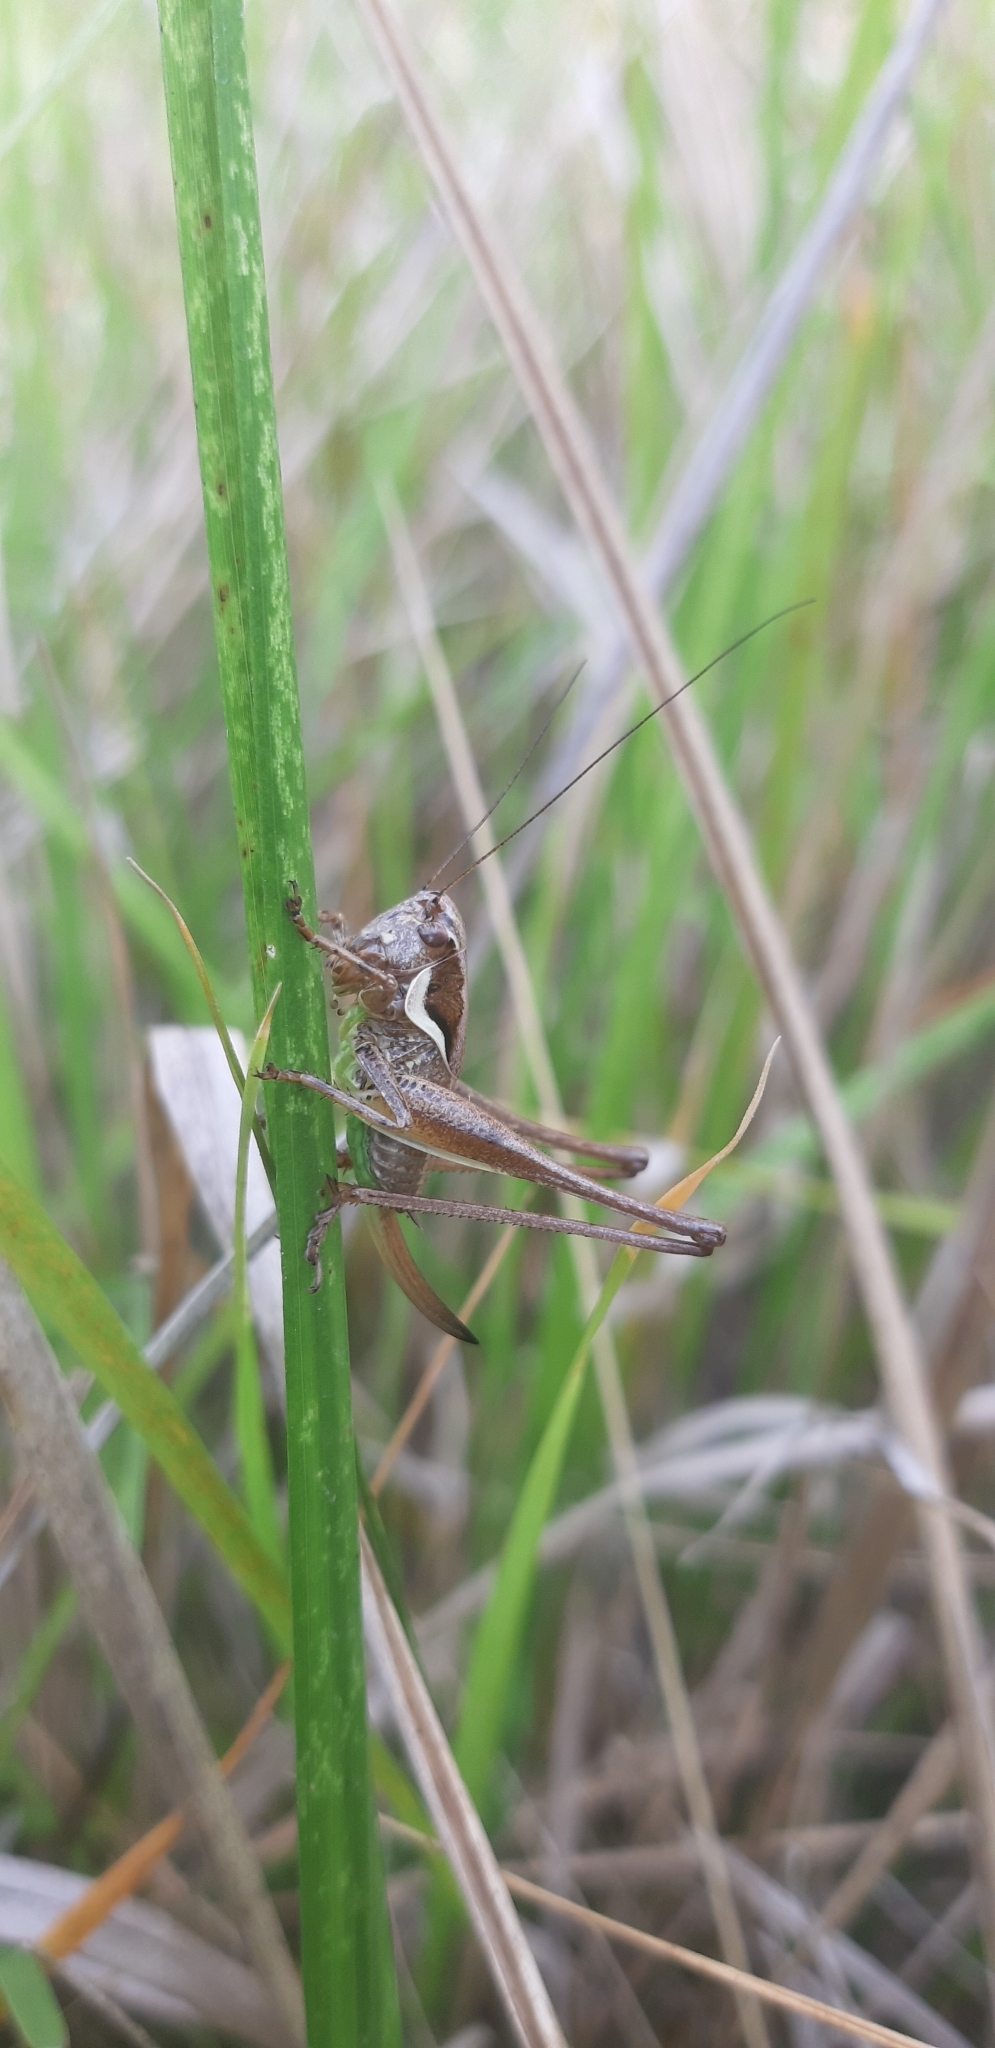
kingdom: Animalia
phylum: Arthropoda
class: Insecta
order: Orthoptera
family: Tettigoniidae
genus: Pholidoptera
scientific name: Pholidoptera fallax
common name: Fischer's bush-cricket
